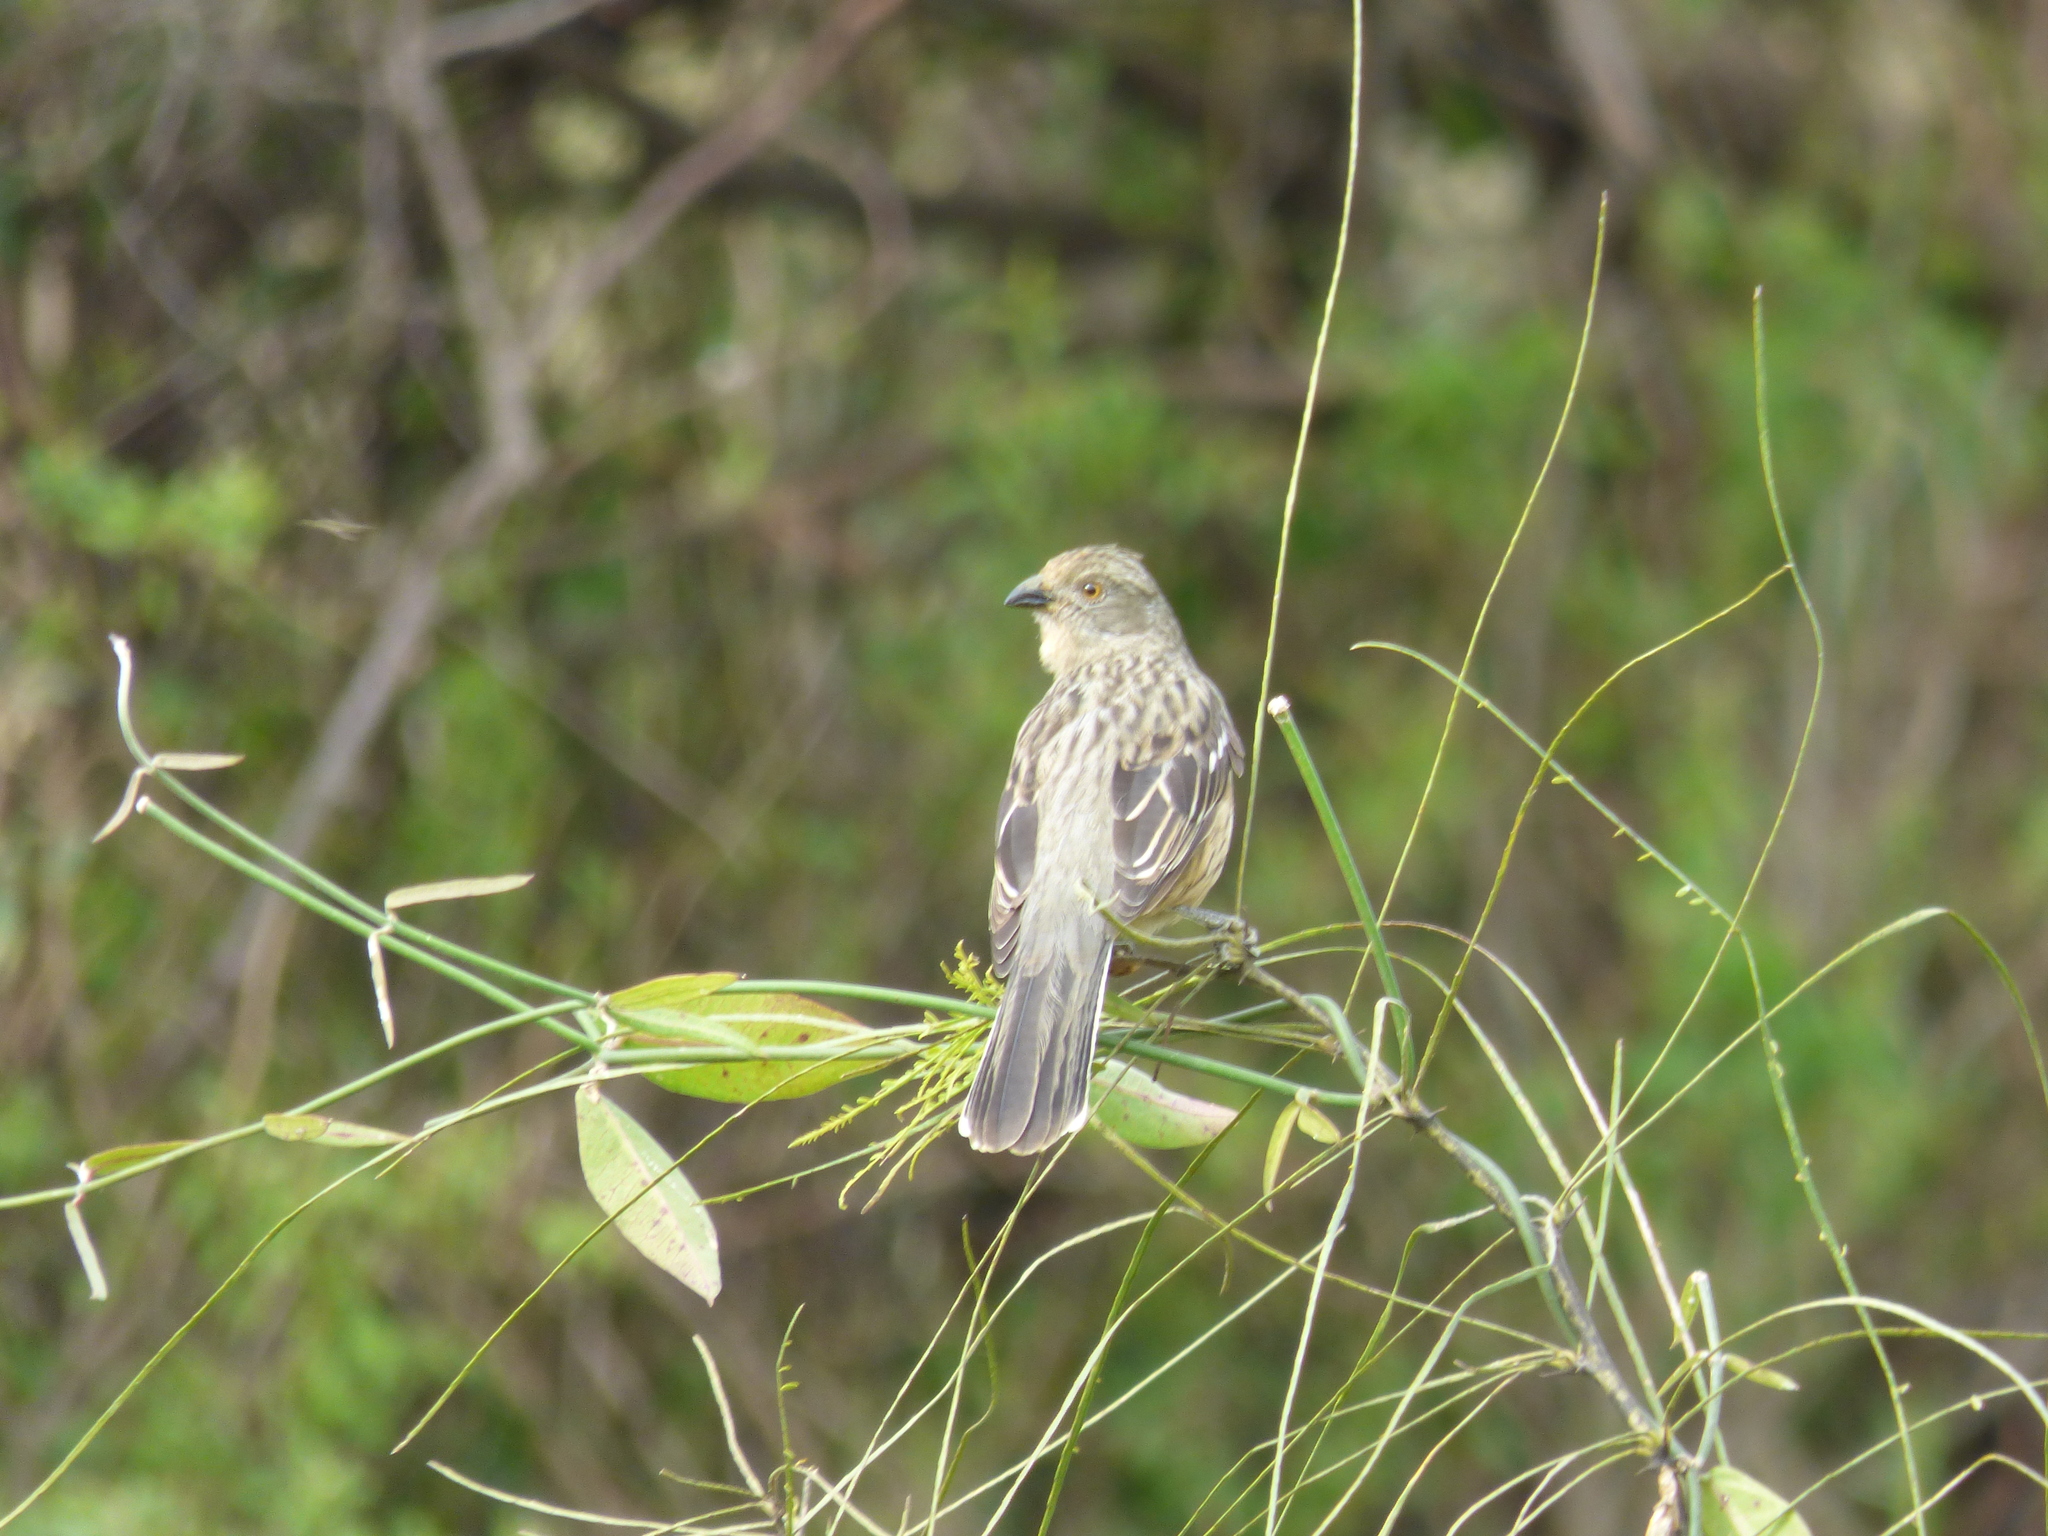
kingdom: Animalia
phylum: Chordata
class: Aves
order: Passeriformes
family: Cotingidae
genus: Phytotoma
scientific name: Phytotoma rutila
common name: White-tipped plantcutter
